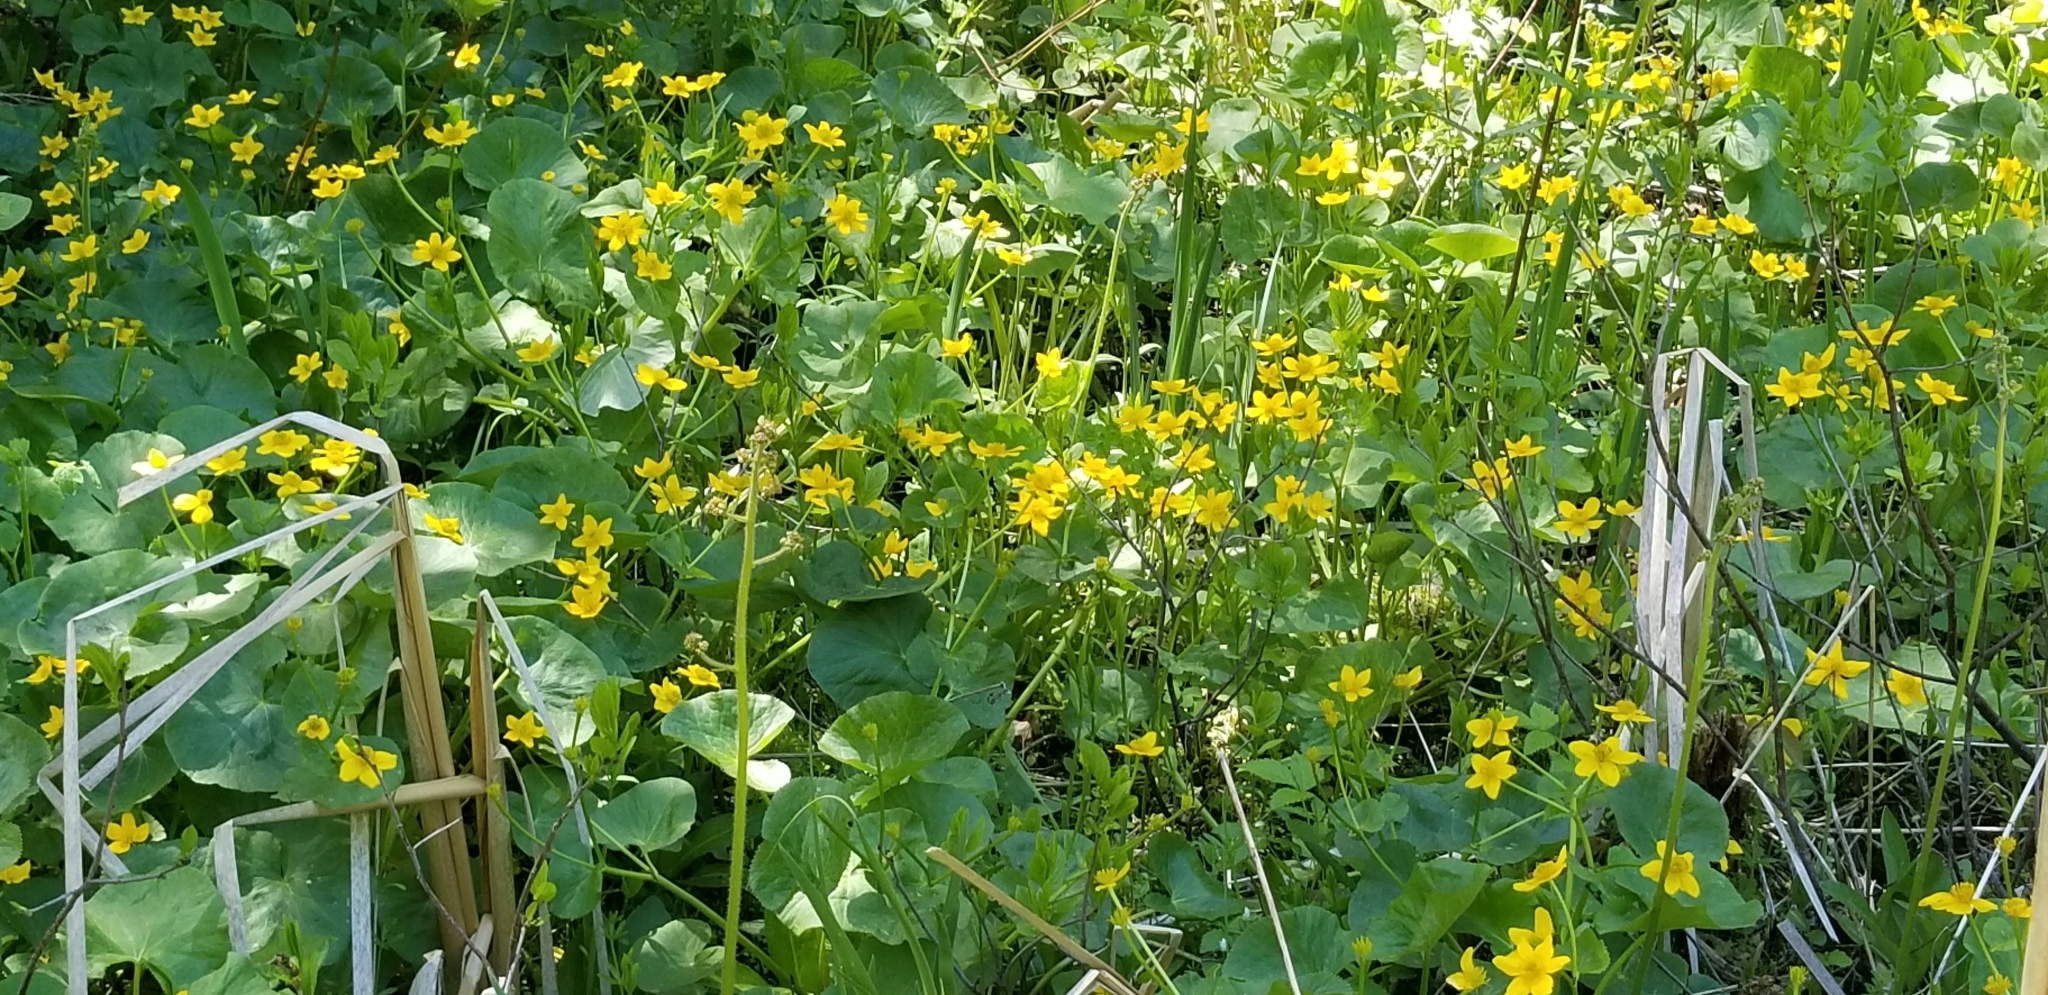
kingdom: Plantae
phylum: Tracheophyta
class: Magnoliopsida
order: Ranunculales
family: Ranunculaceae
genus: Caltha
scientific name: Caltha palustris
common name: Marsh marigold
